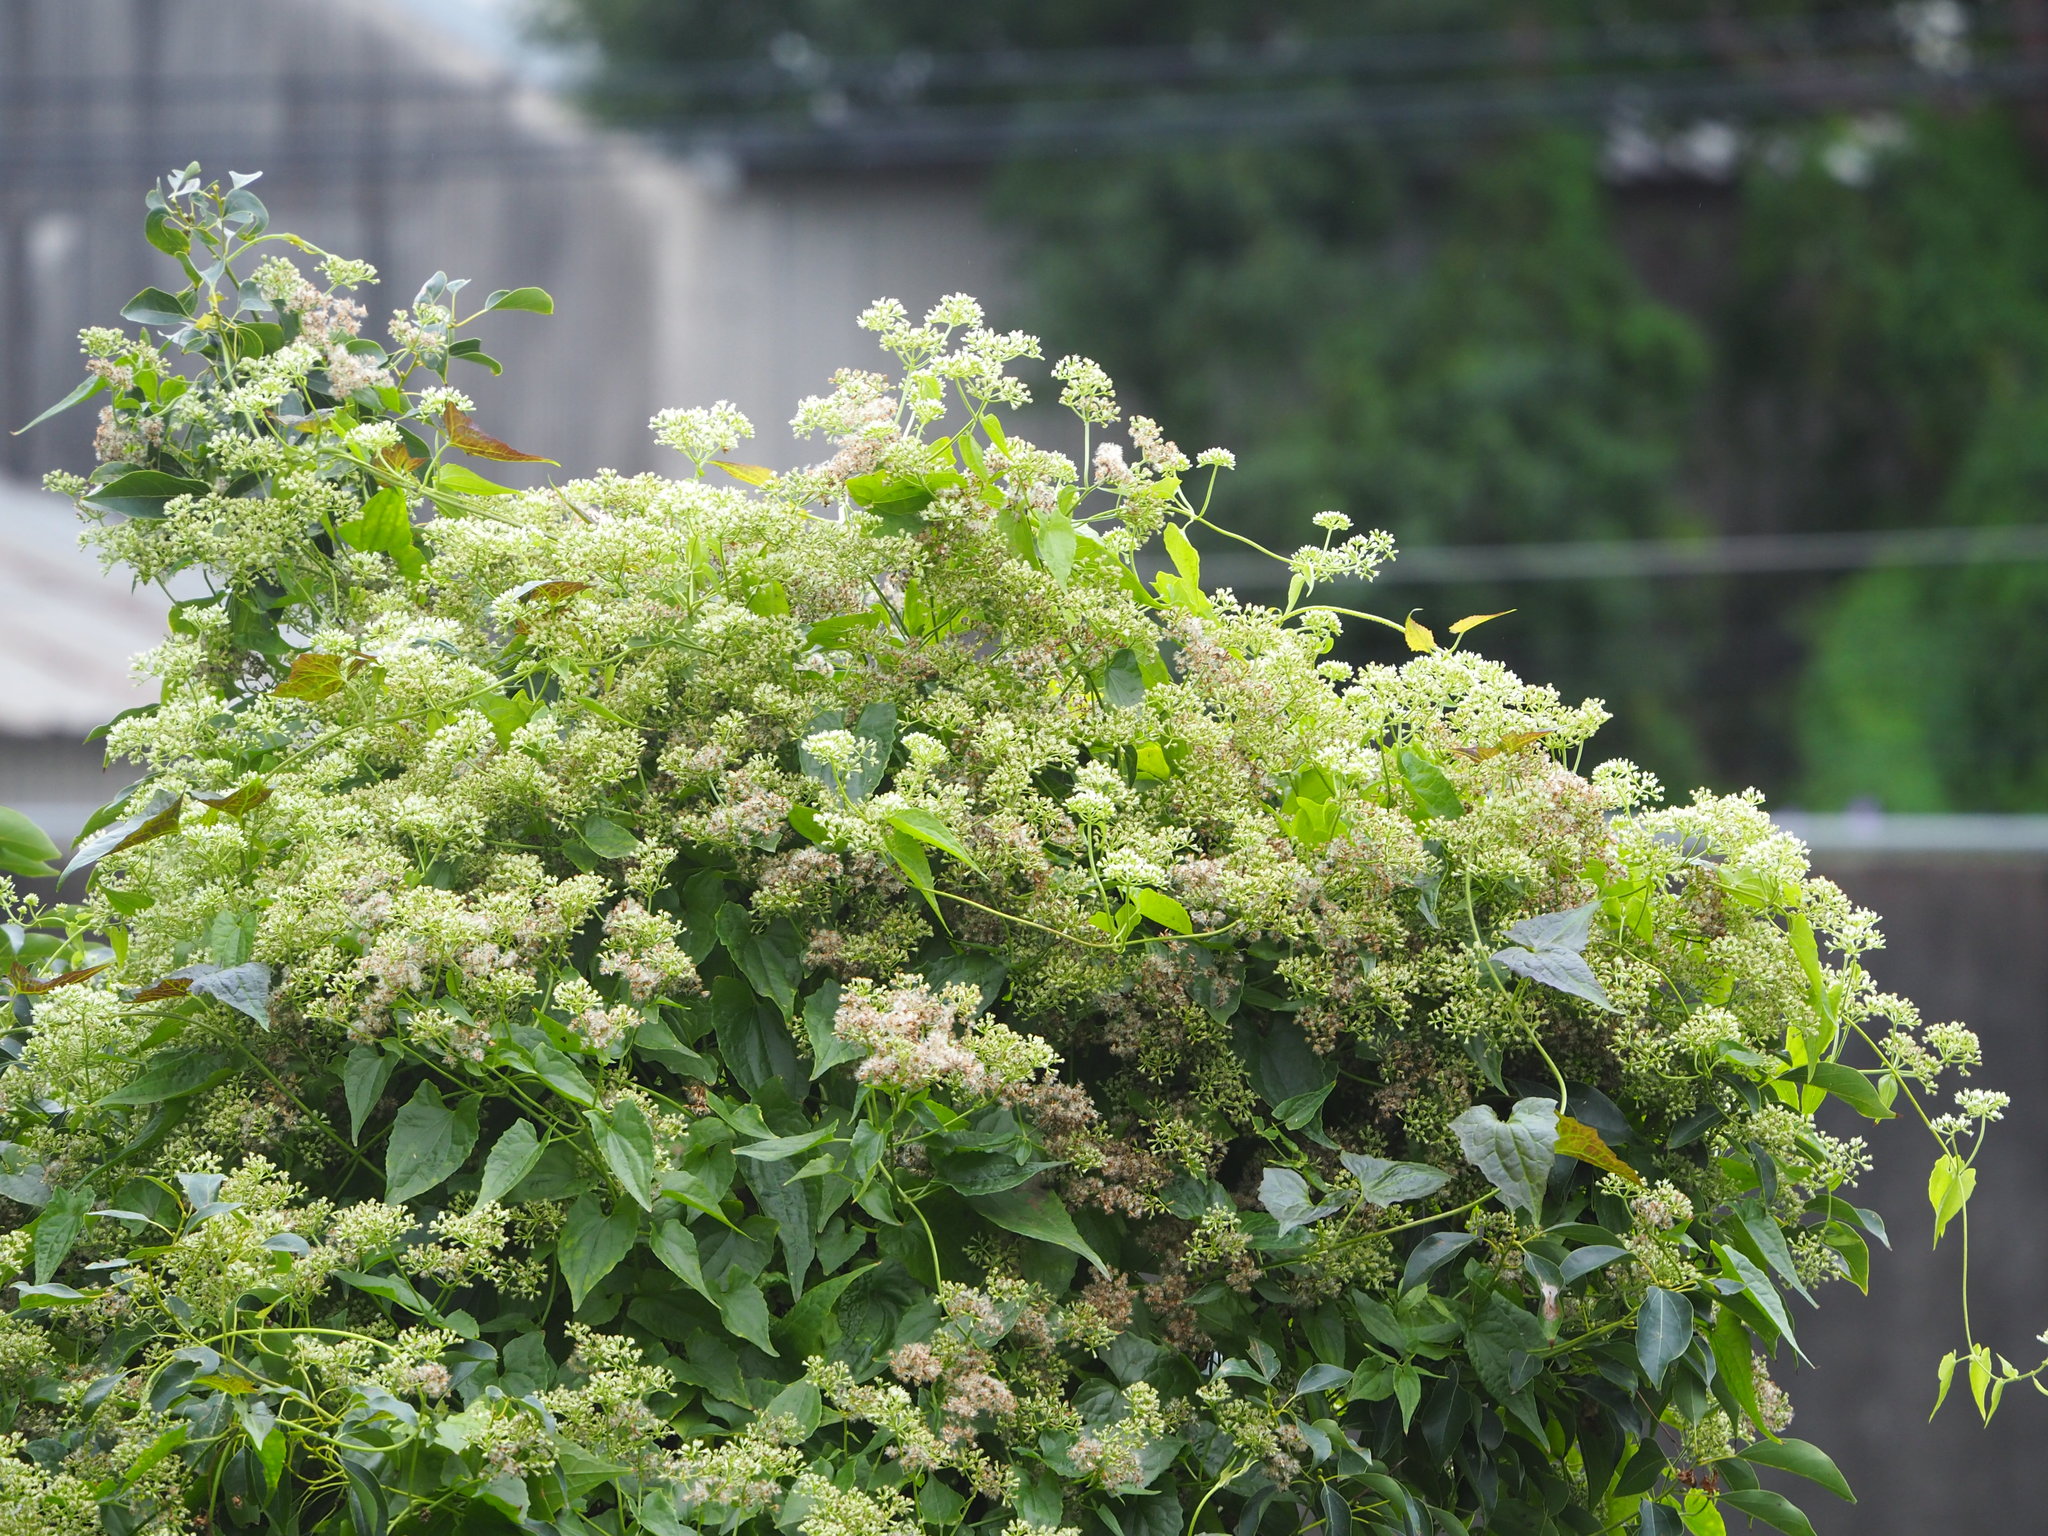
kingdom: Plantae
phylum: Tracheophyta
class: Magnoliopsida
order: Asterales
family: Asteraceae
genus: Mikania
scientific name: Mikania micrantha
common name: Mile-a-minute
